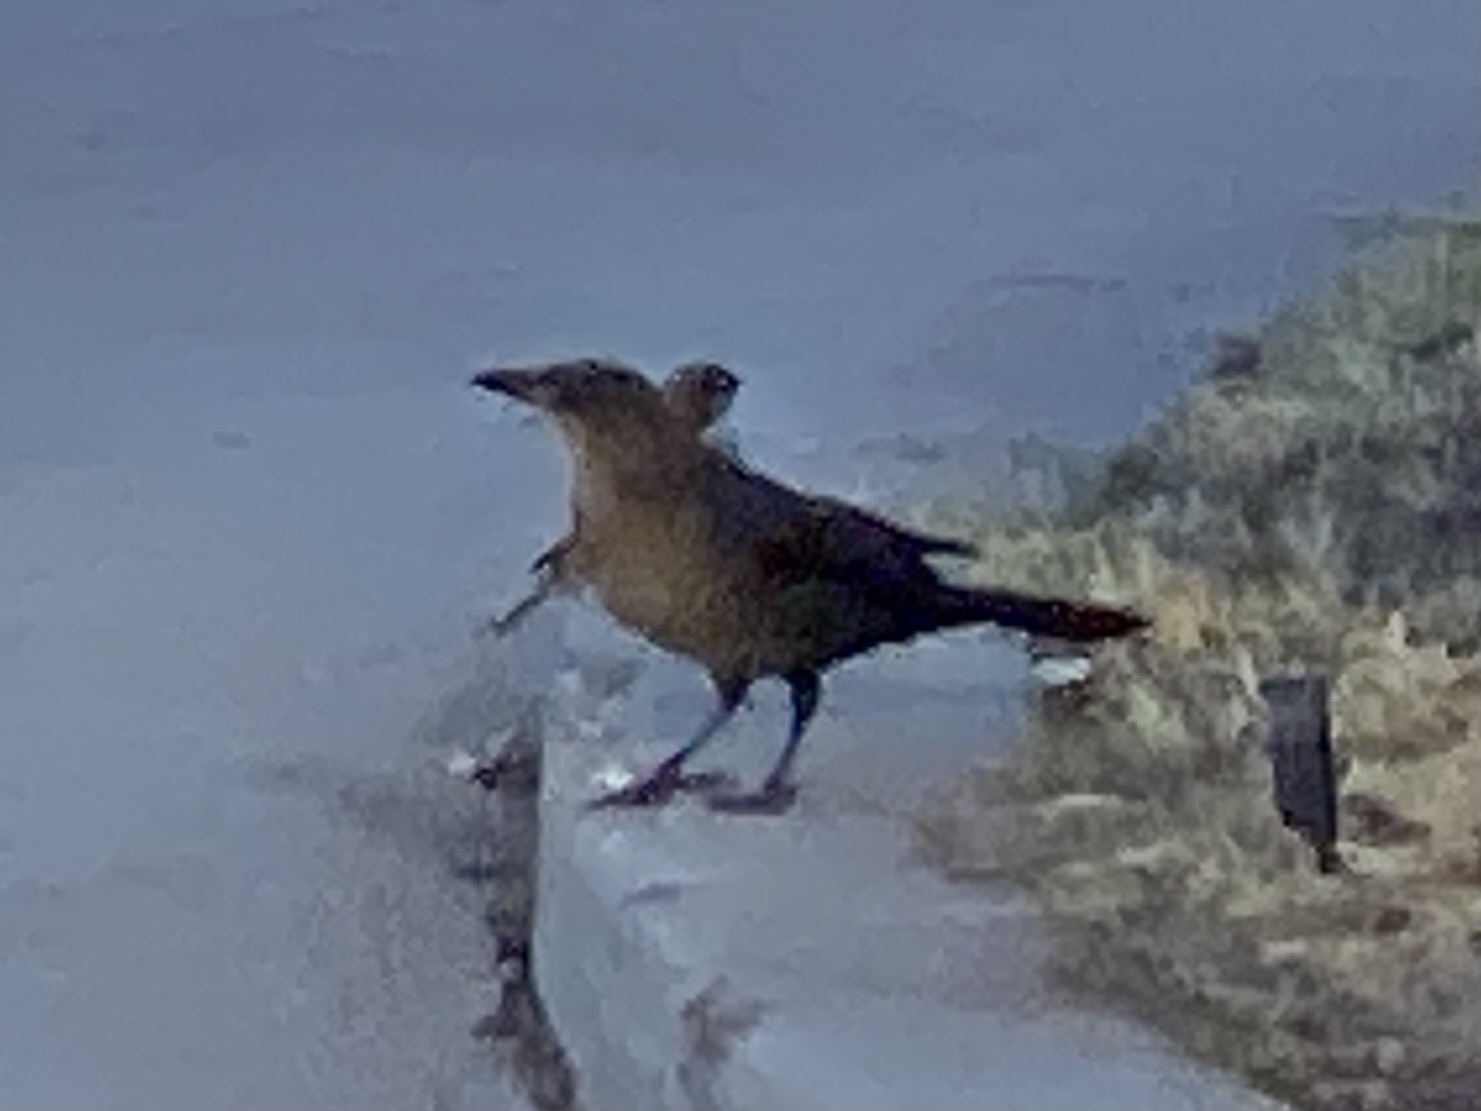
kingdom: Animalia
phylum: Chordata
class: Aves
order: Passeriformes
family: Icteridae
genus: Quiscalus
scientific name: Quiscalus mexicanus
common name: Great-tailed grackle
